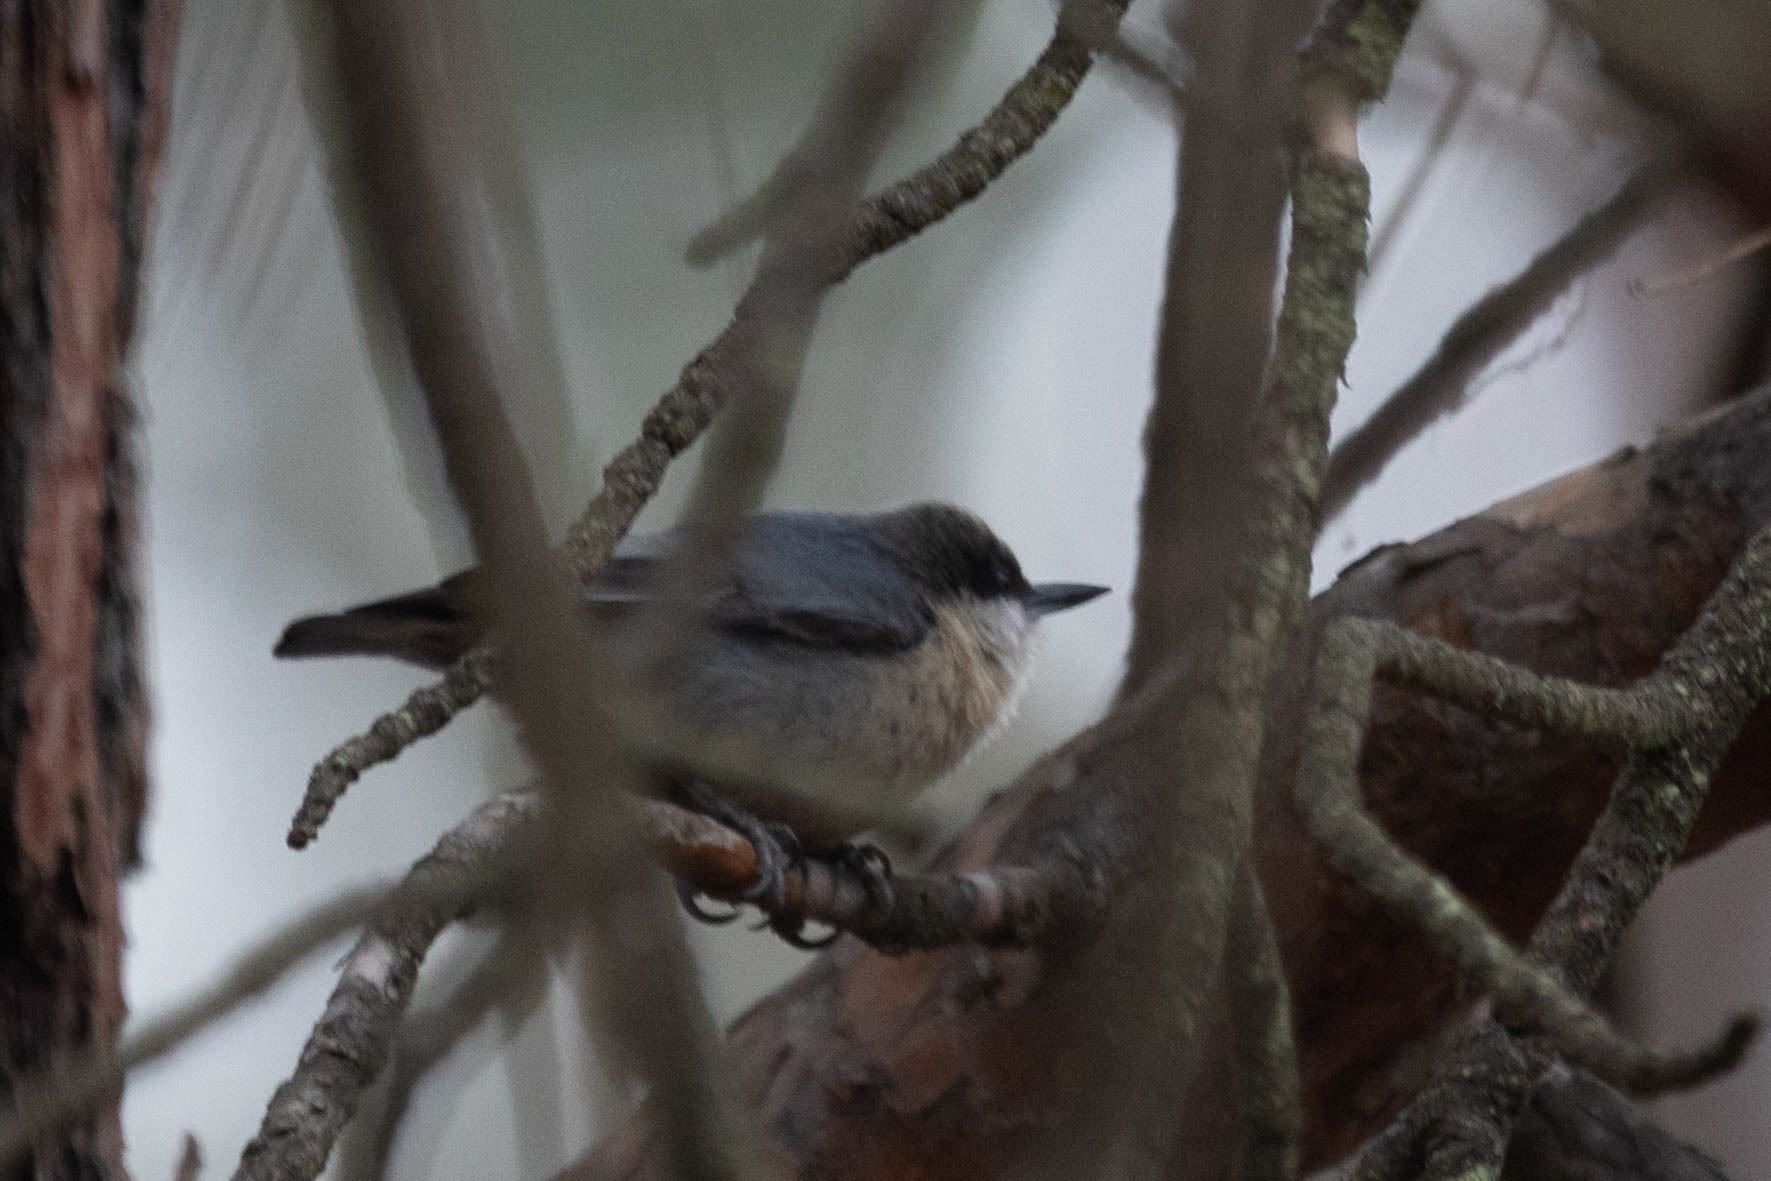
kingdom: Animalia
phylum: Chordata
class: Aves
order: Passeriformes
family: Sittidae
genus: Sitta
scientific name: Sitta pygmaea
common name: Pygmy nuthatch
